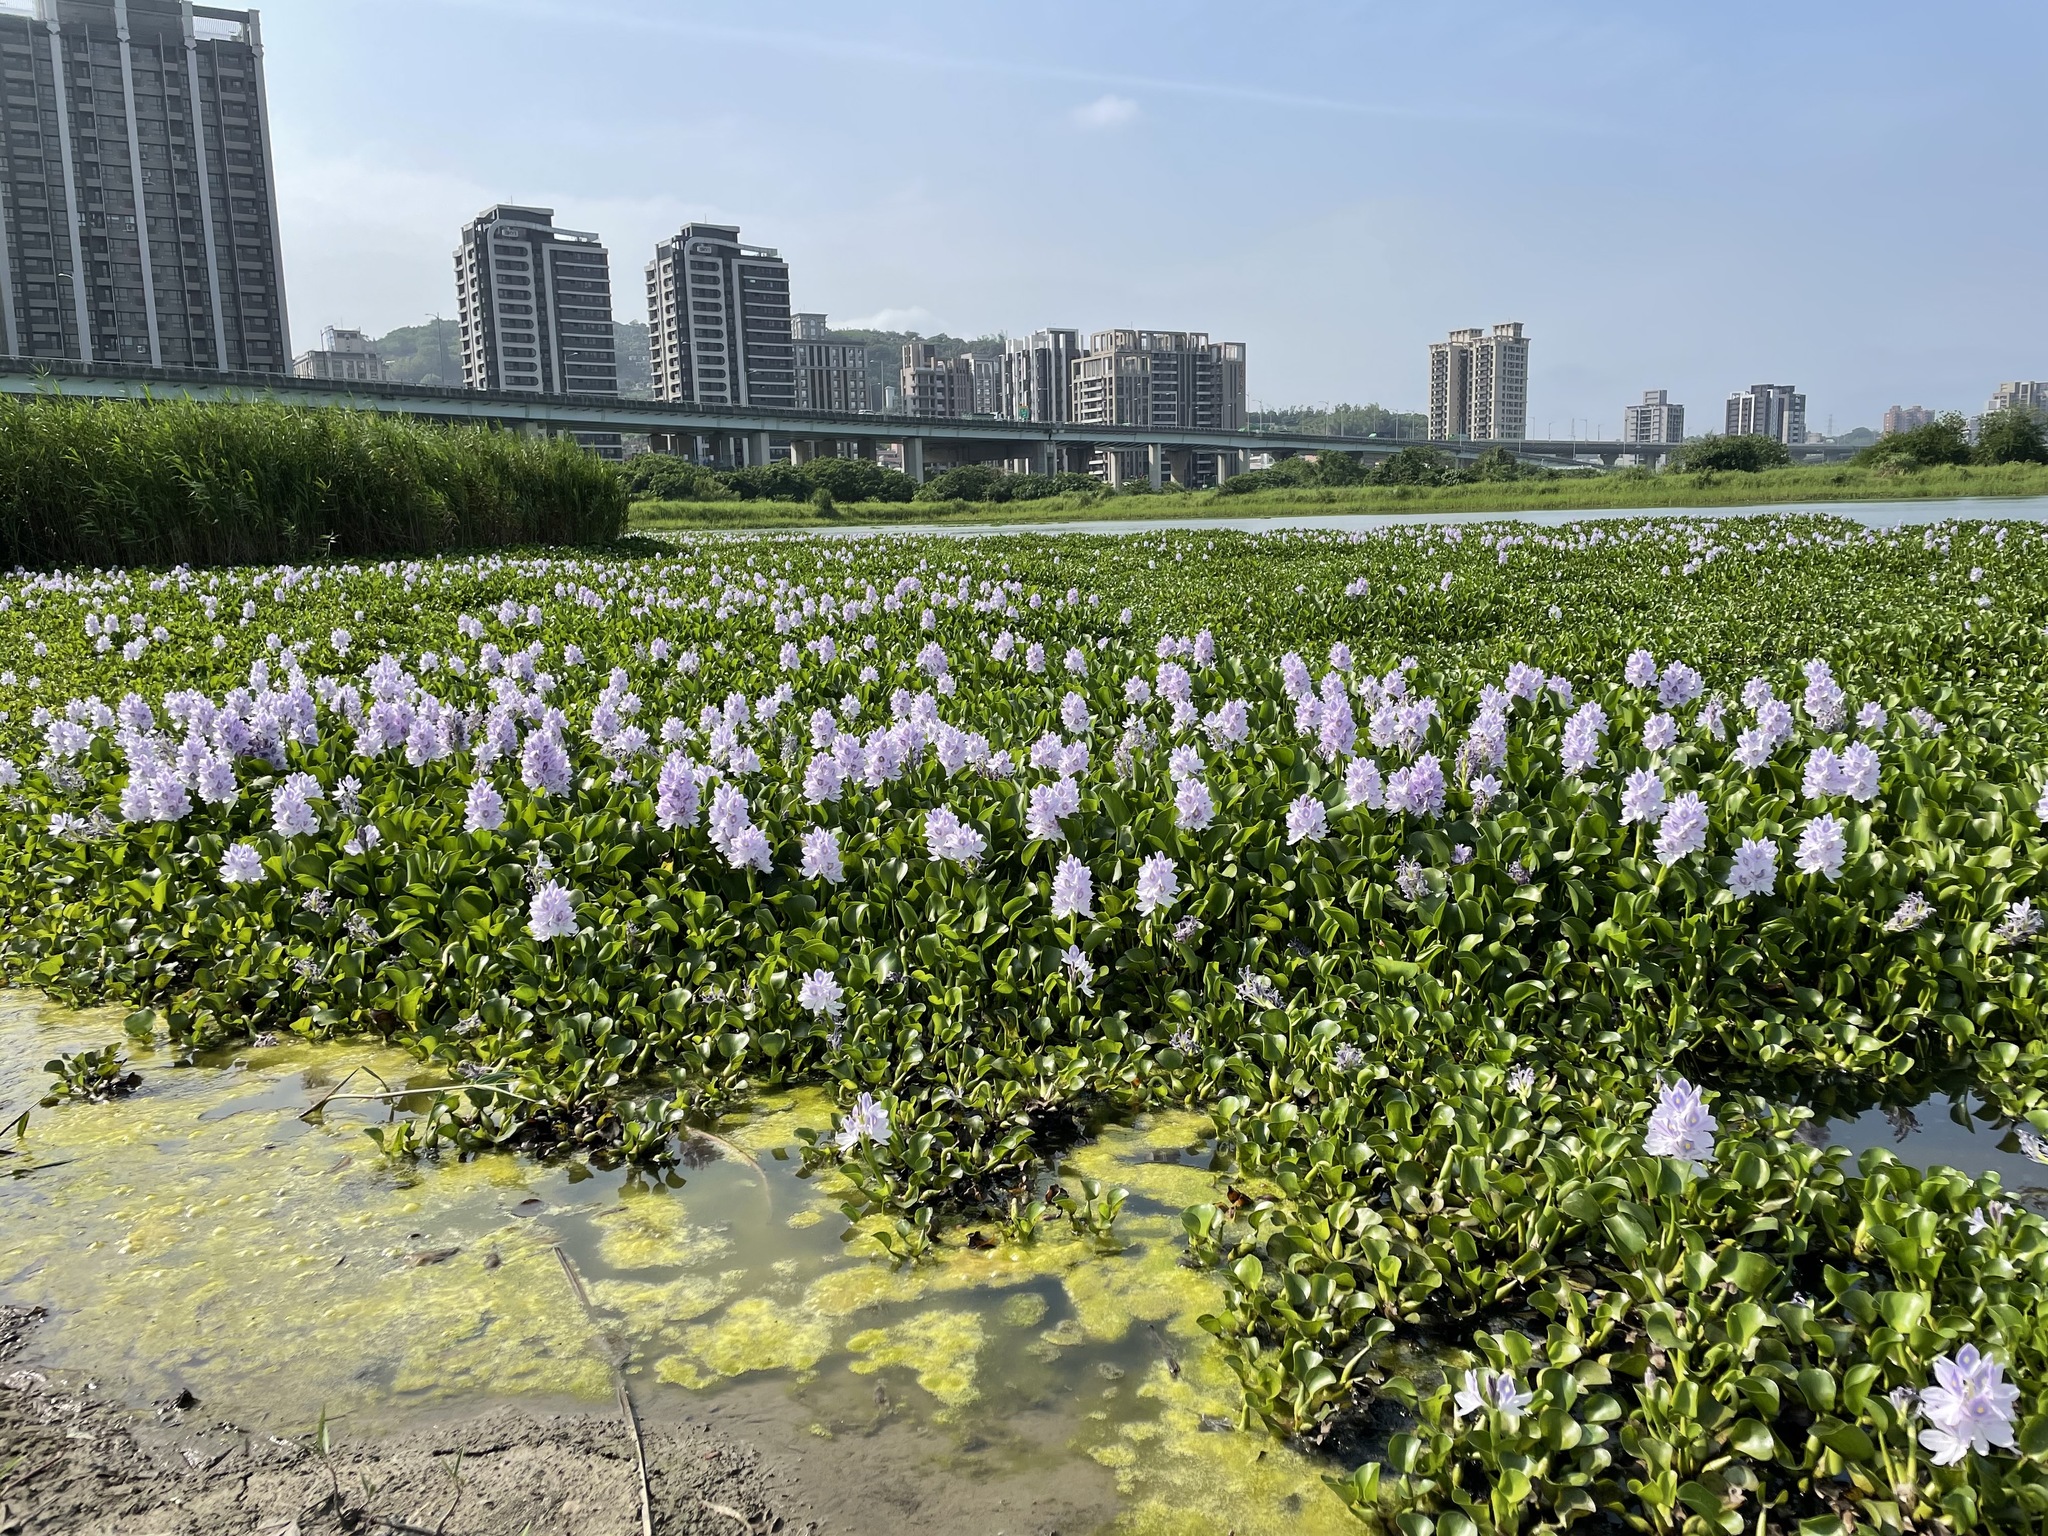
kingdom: Plantae
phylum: Tracheophyta
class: Liliopsida
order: Commelinales
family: Pontederiaceae
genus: Pontederia
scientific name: Pontederia crassipes
